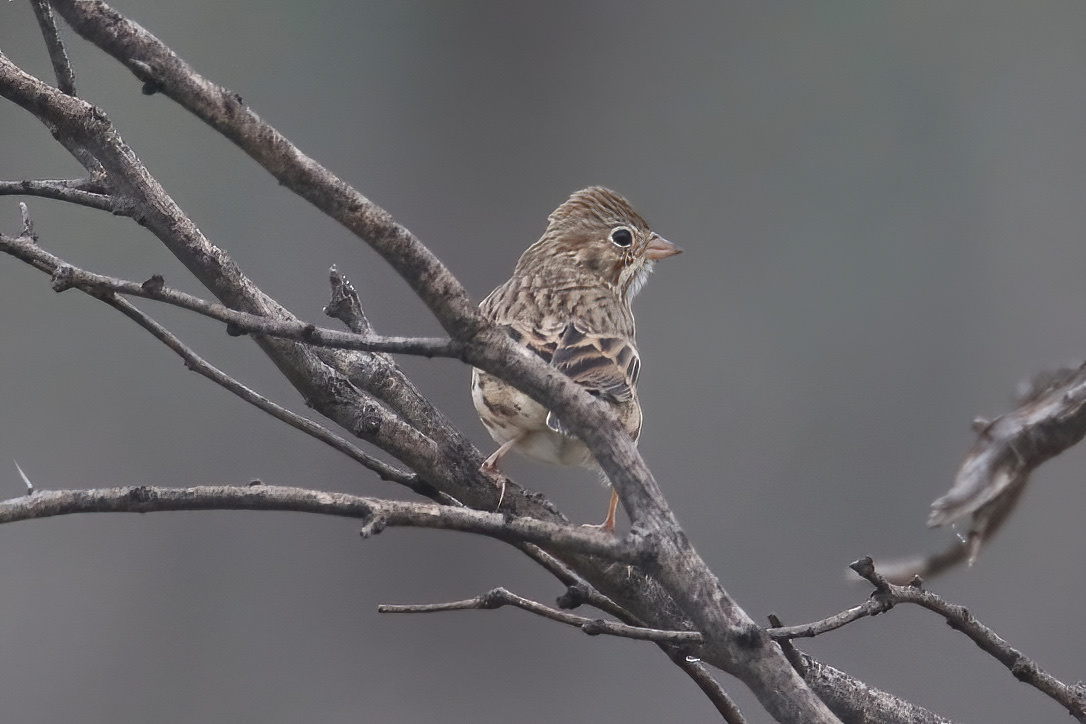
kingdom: Animalia
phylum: Chordata
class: Aves
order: Passeriformes
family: Passerellidae
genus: Pooecetes
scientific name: Pooecetes gramineus
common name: Vesper sparrow
